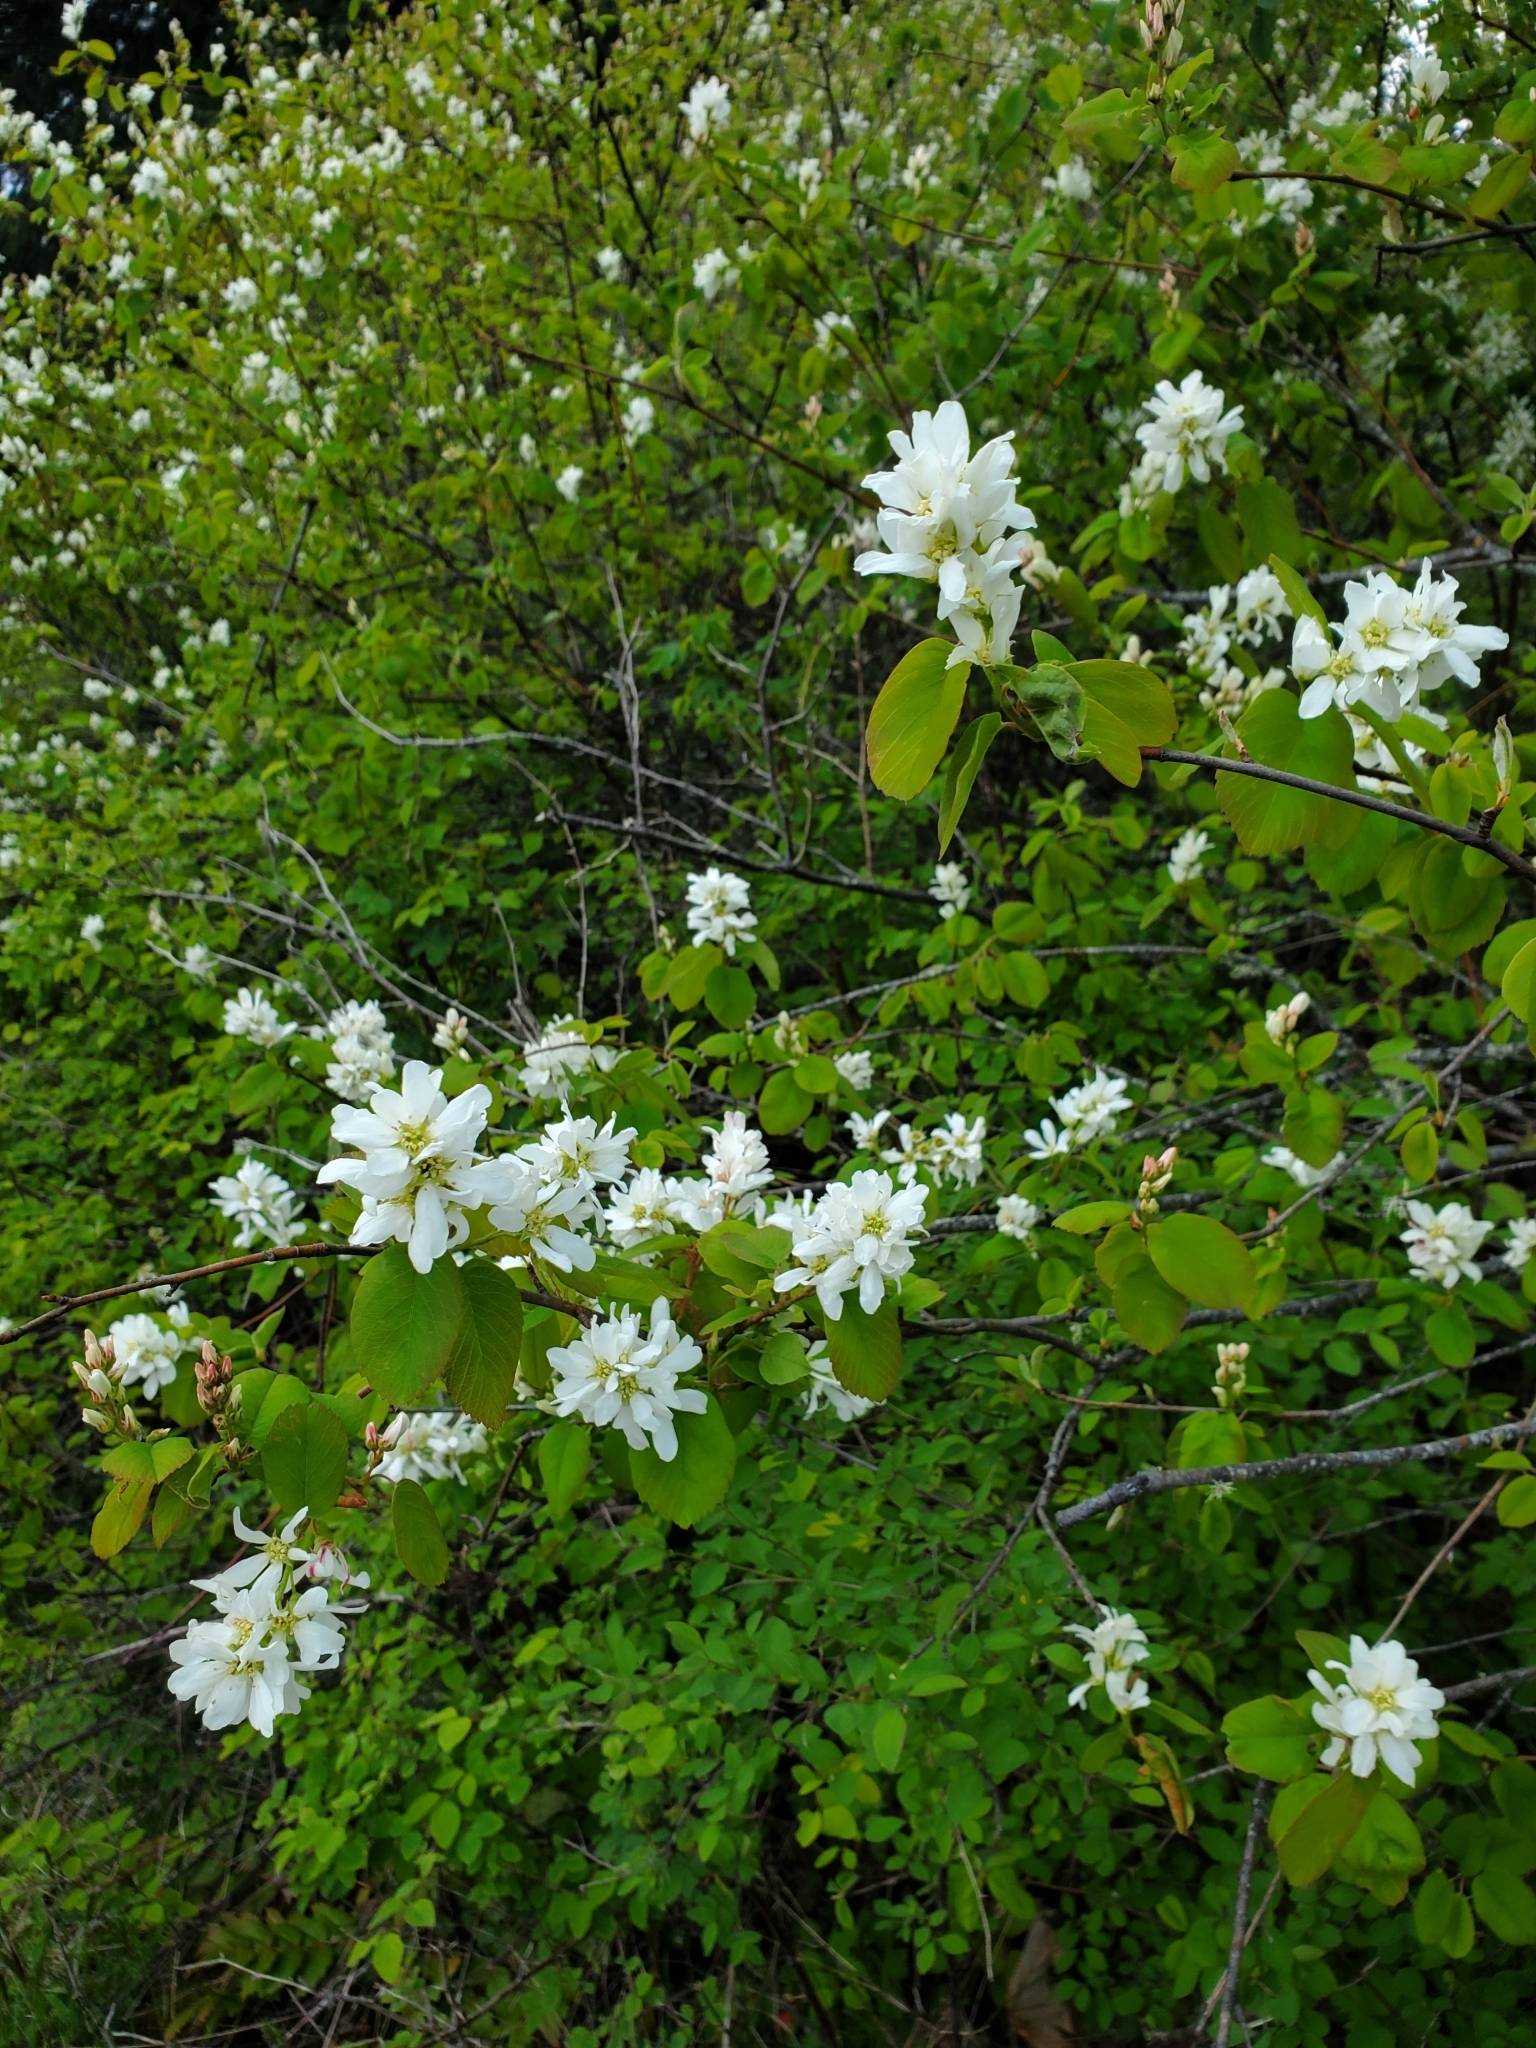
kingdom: Plantae
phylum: Tracheophyta
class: Magnoliopsida
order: Rosales
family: Rosaceae
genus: Amelanchier
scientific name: Amelanchier alnifolia
